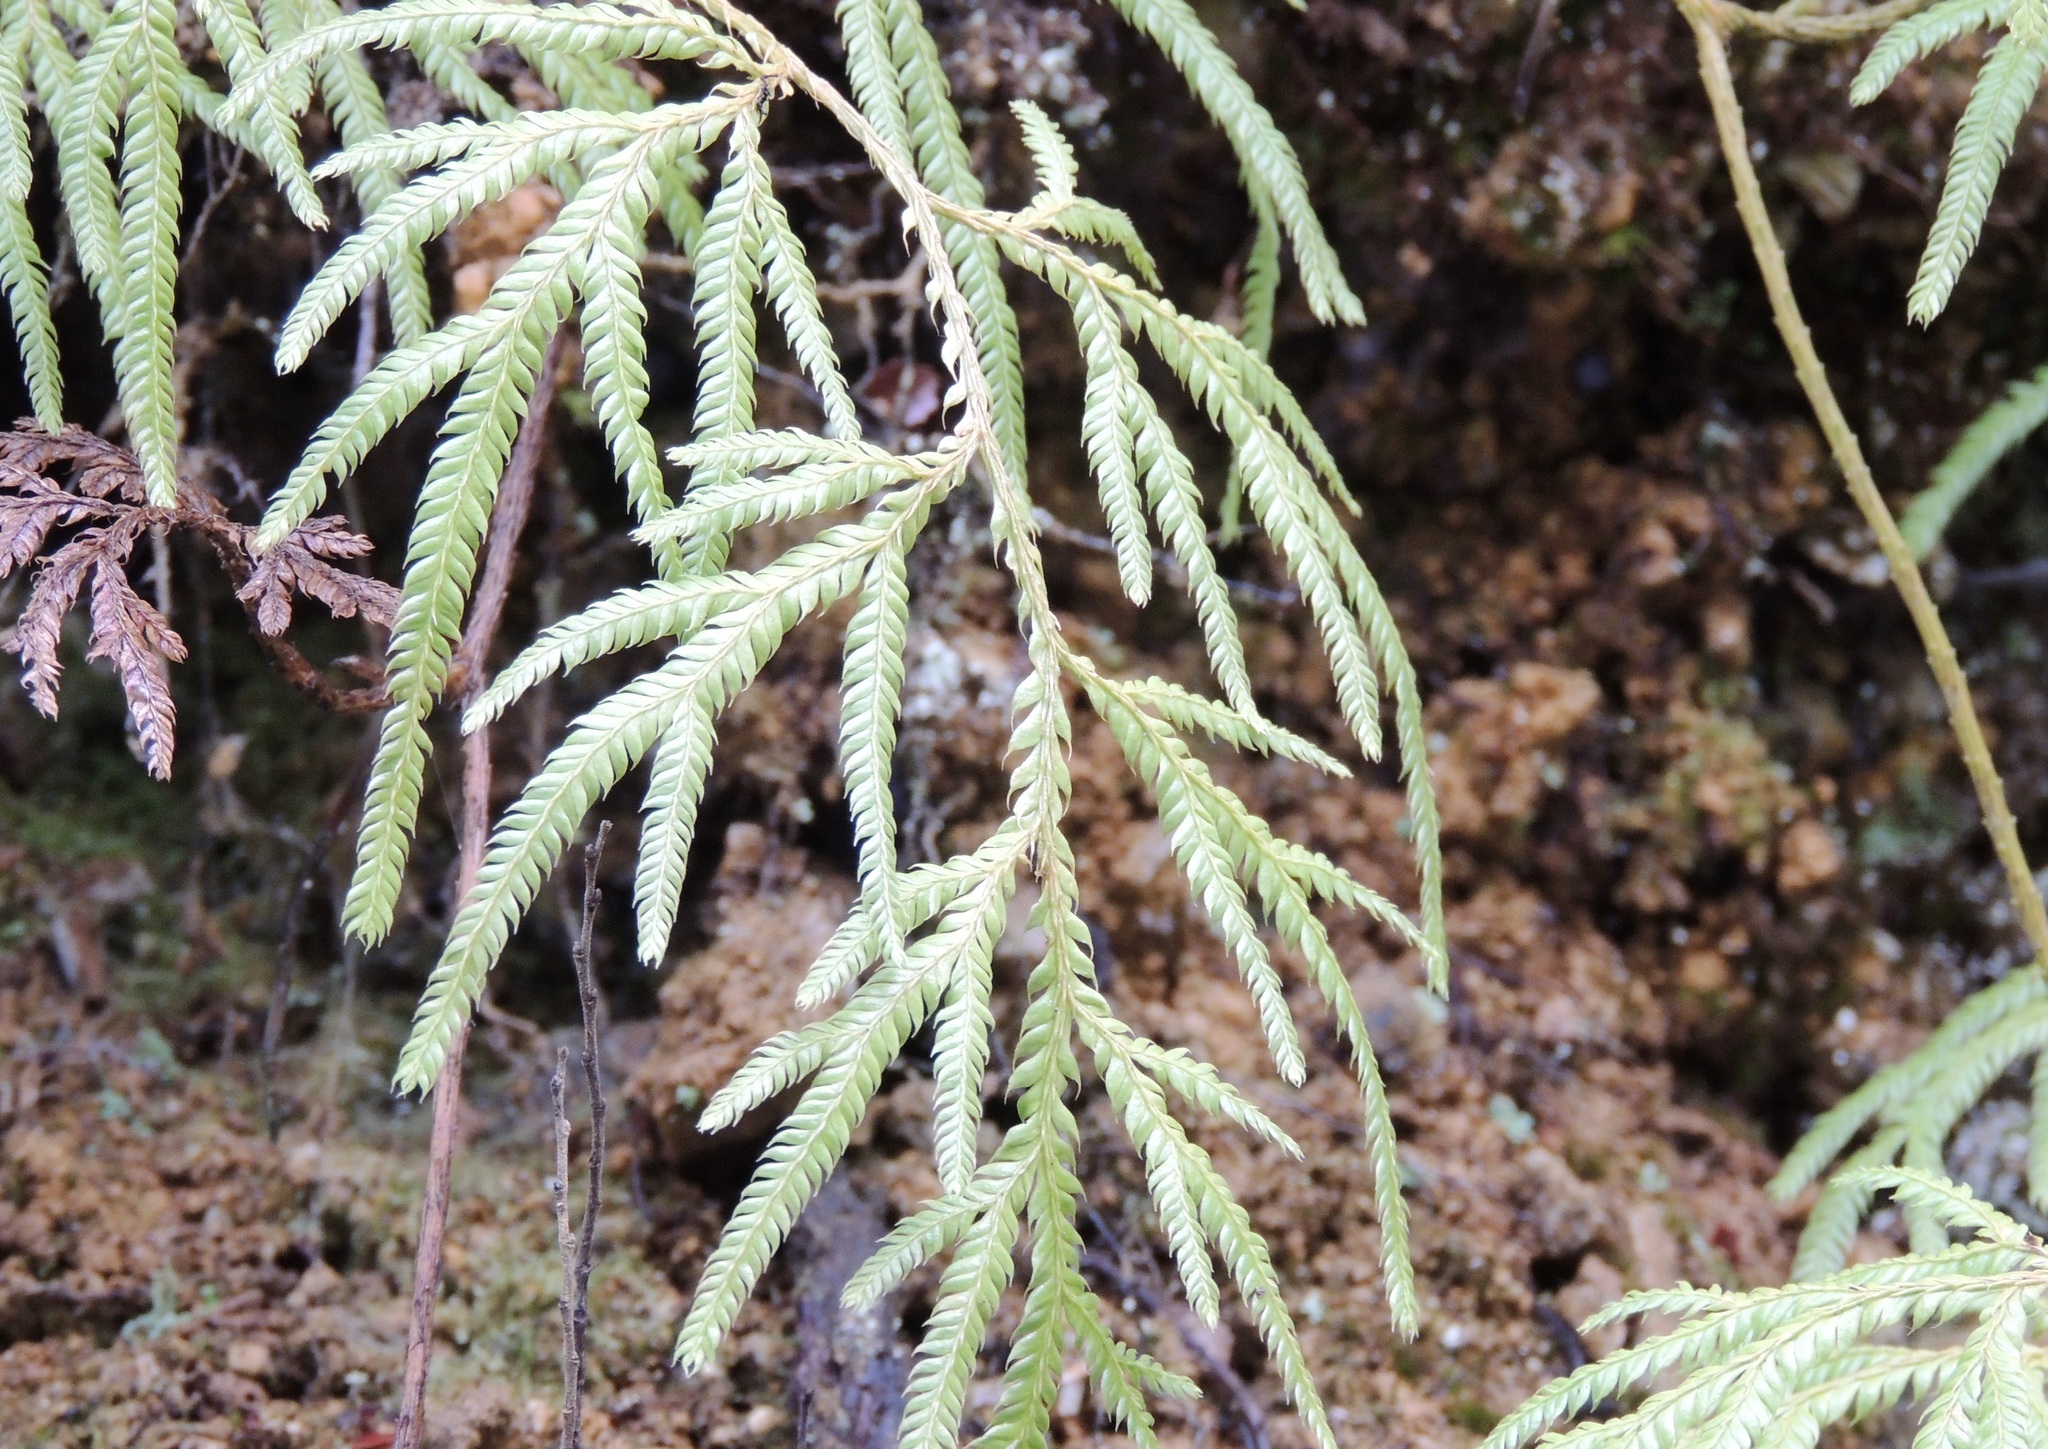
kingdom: Plantae
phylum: Tracheophyta
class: Lycopodiopsida
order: Lycopodiales
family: Lycopodiaceae
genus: Lycopodium
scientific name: Lycopodium volubile
